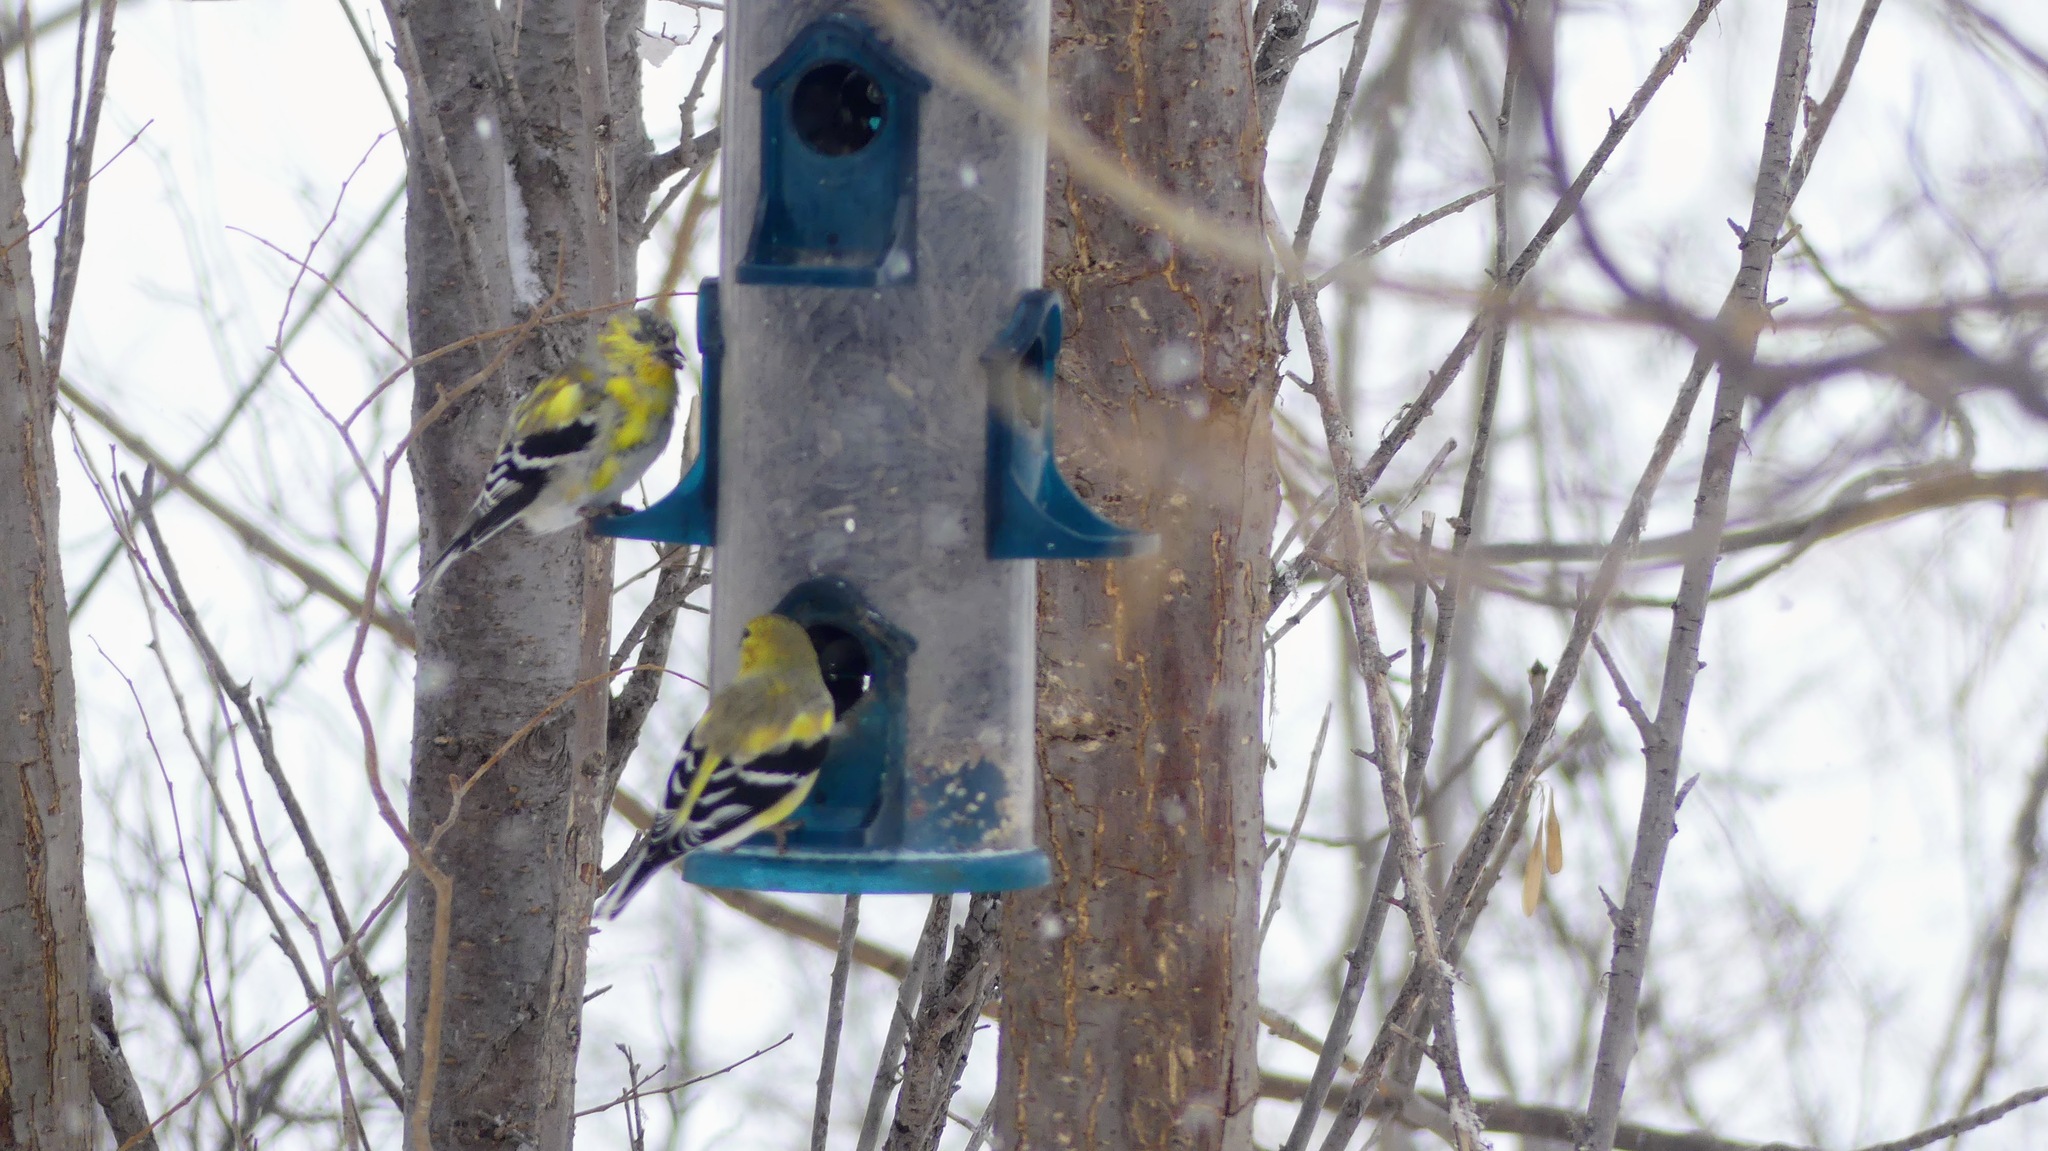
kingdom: Animalia
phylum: Chordata
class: Aves
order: Passeriformes
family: Fringillidae
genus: Spinus
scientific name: Spinus tristis
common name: American goldfinch
